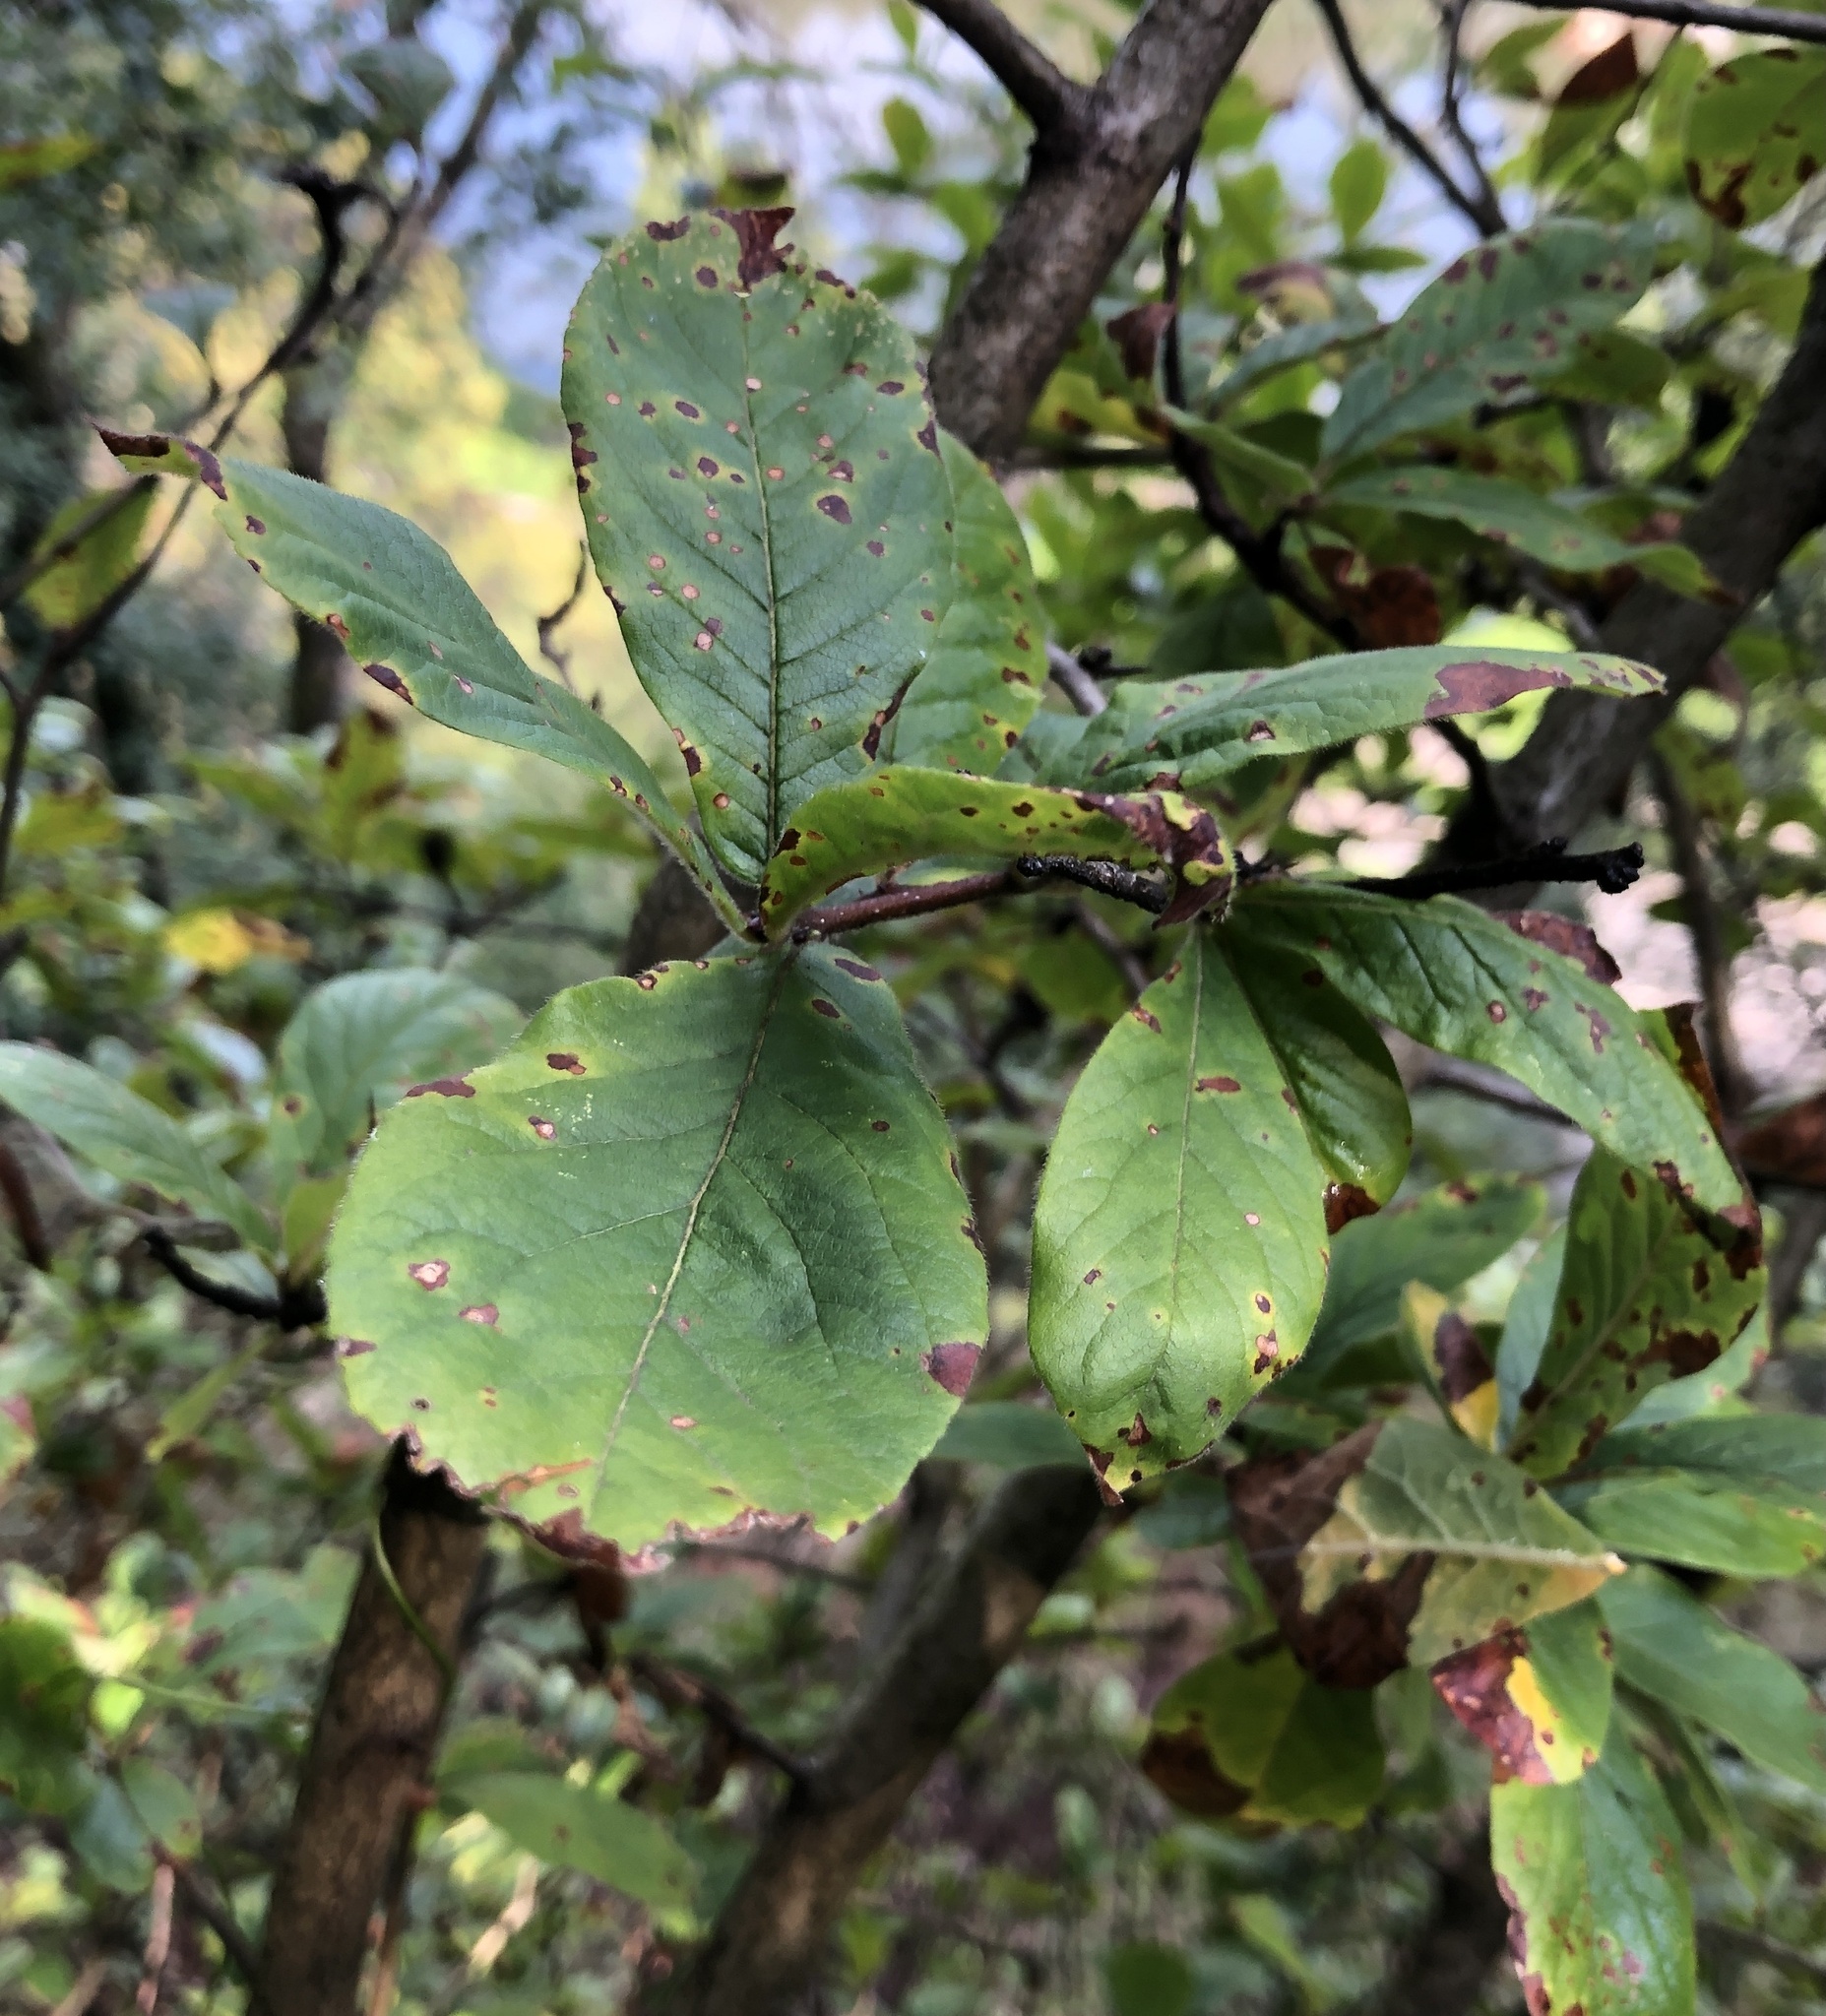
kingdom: Plantae
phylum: Tracheophyta
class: Magnoliopsida
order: Rosales
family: Rosaceae
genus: Mespilus
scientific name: Mespilus germanica
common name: Medlar
